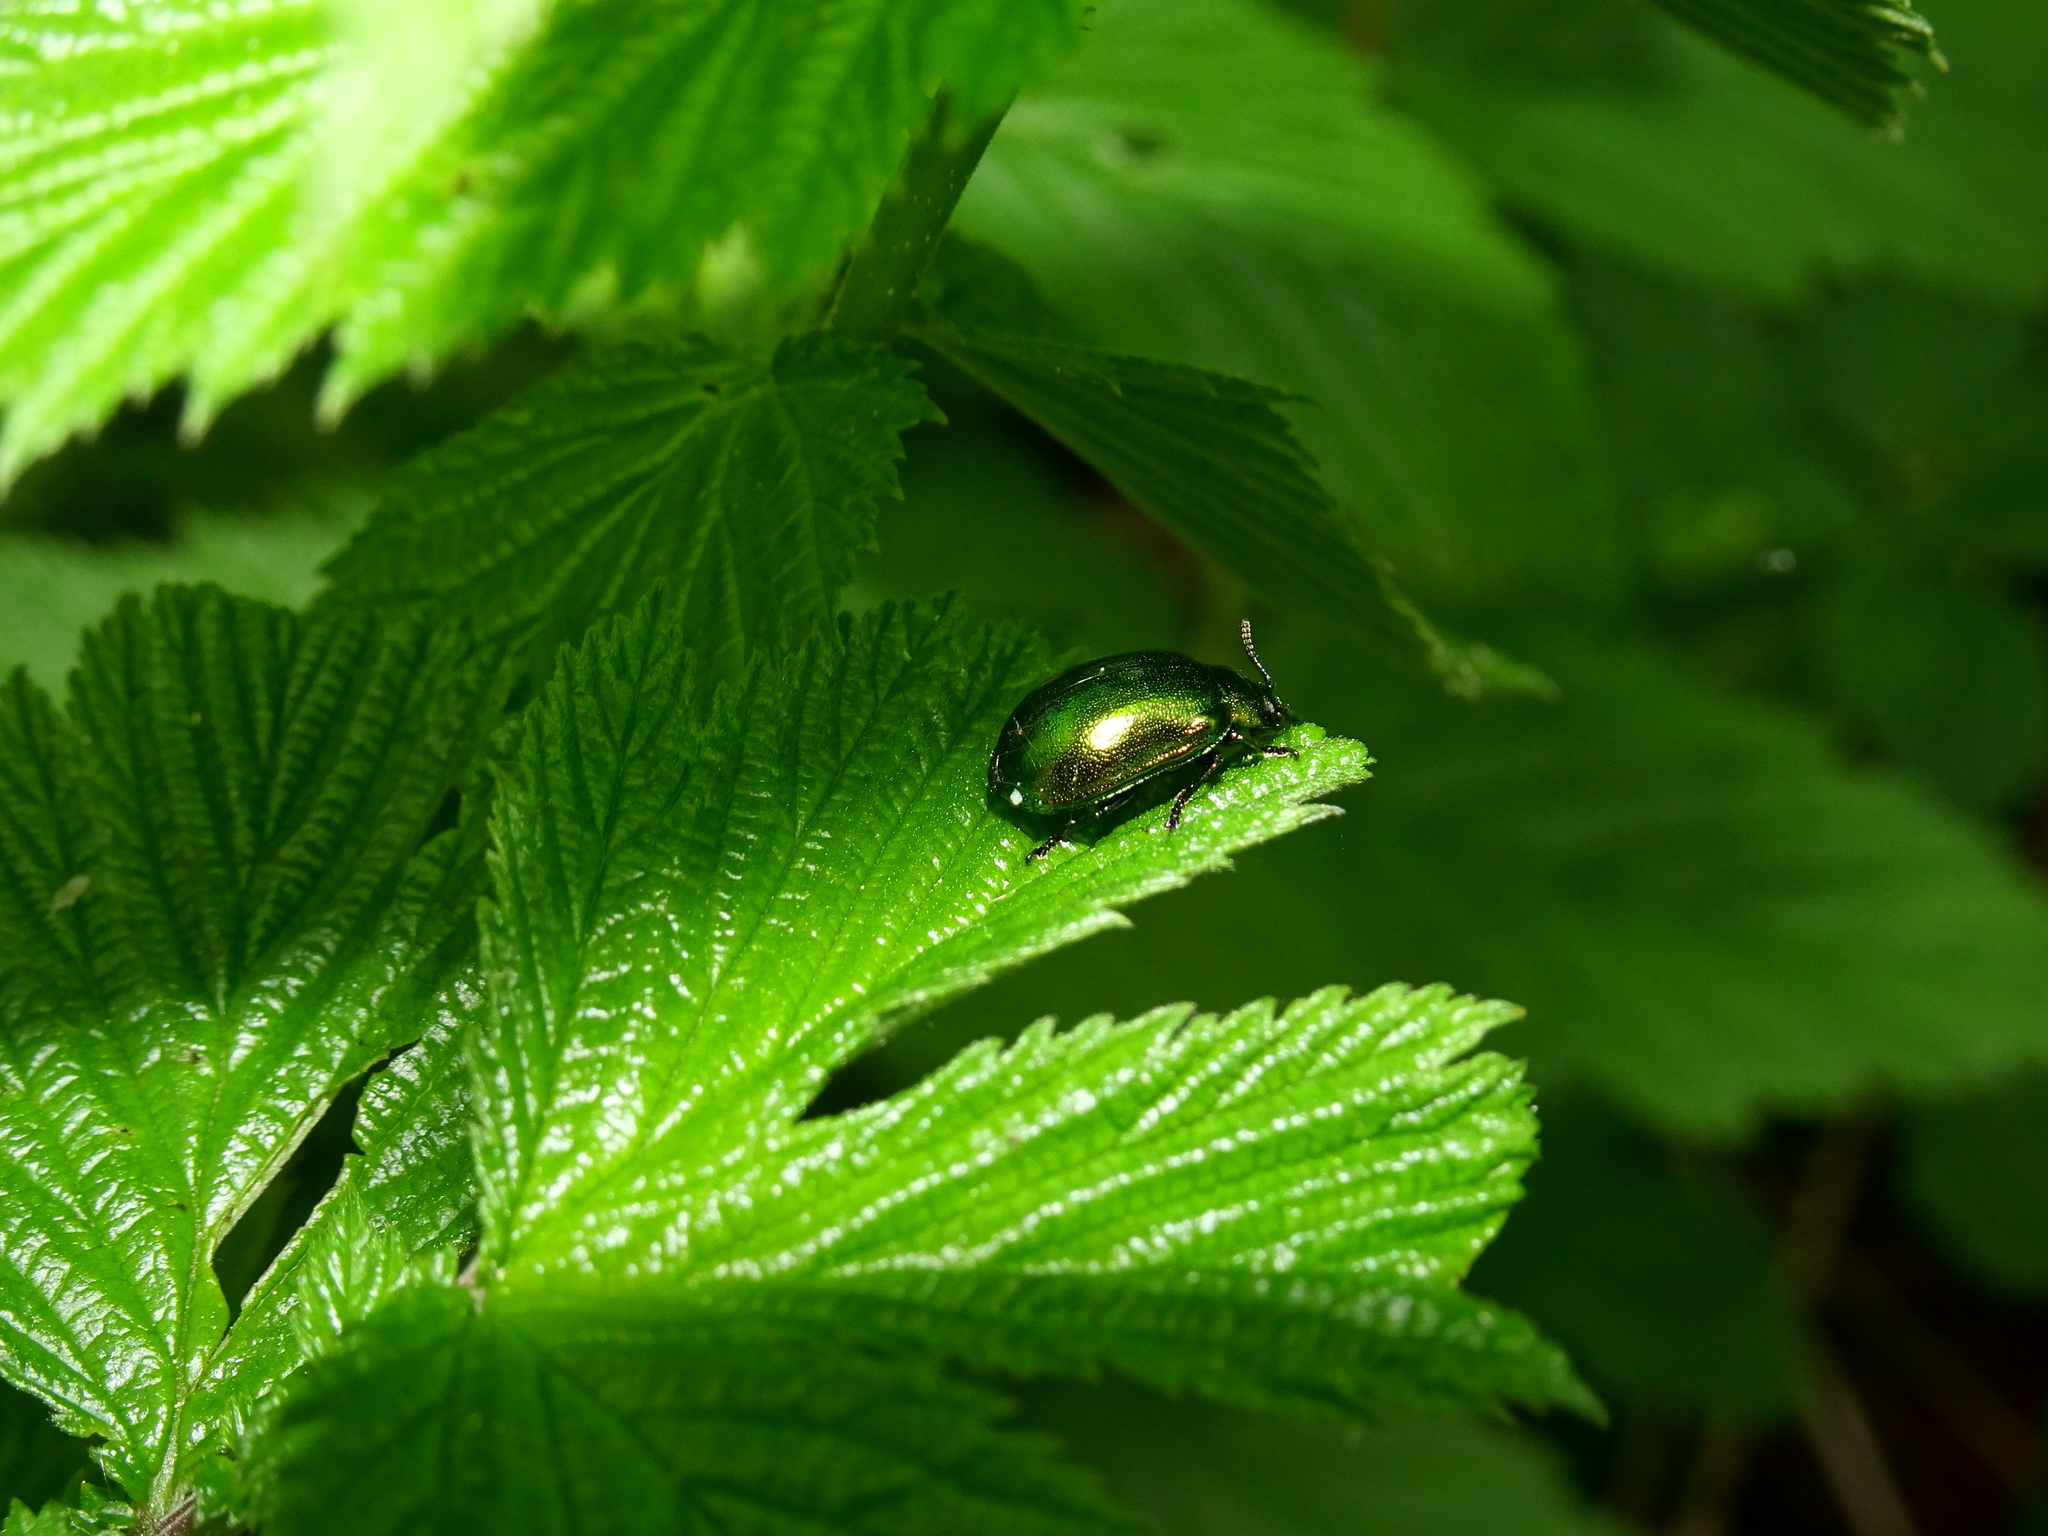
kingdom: Animalia
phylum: Arthropoda
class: Insecta
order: Coleoptera
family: Chrysomelidae
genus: Plagiosterna
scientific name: Plagiosterna aenea
